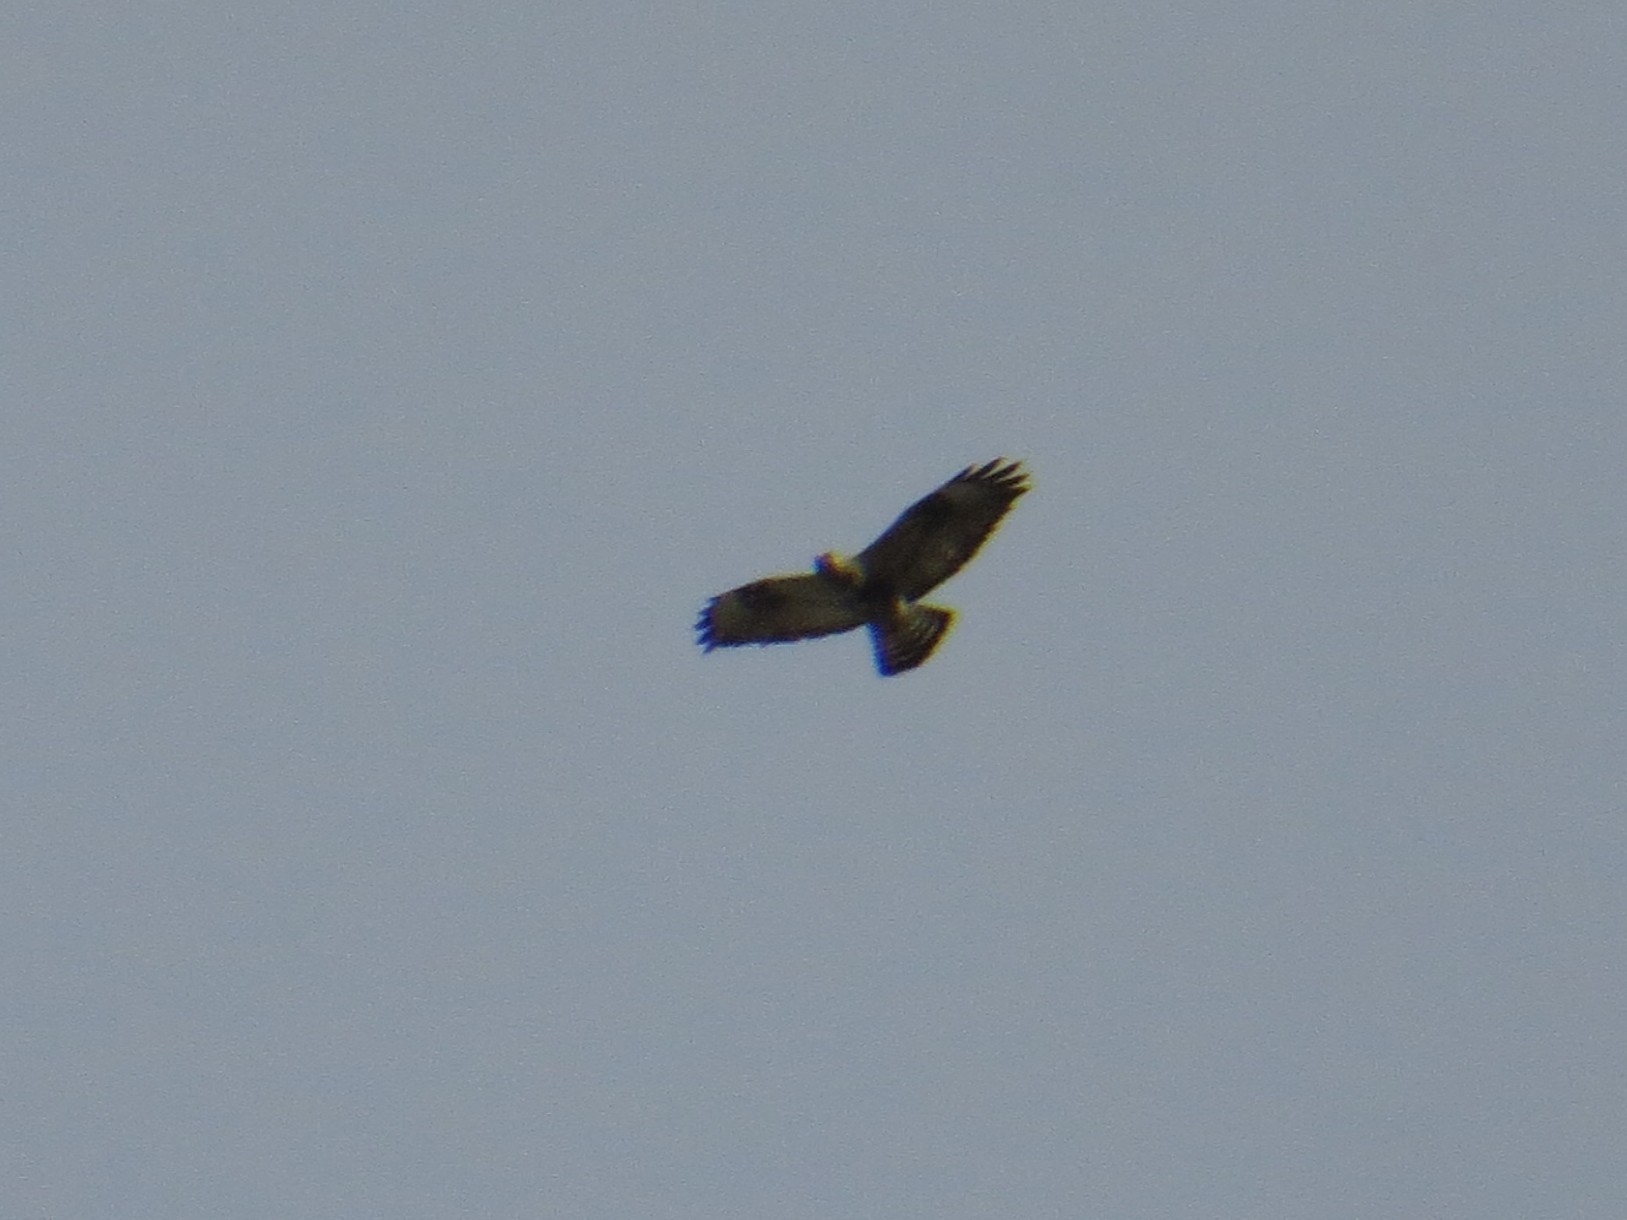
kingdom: Animalia
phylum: Chordata
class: Aves
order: Accipitriformes
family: Accipitridae
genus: Buteo
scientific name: Buteo lagopus
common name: Rough-legged buzzard
